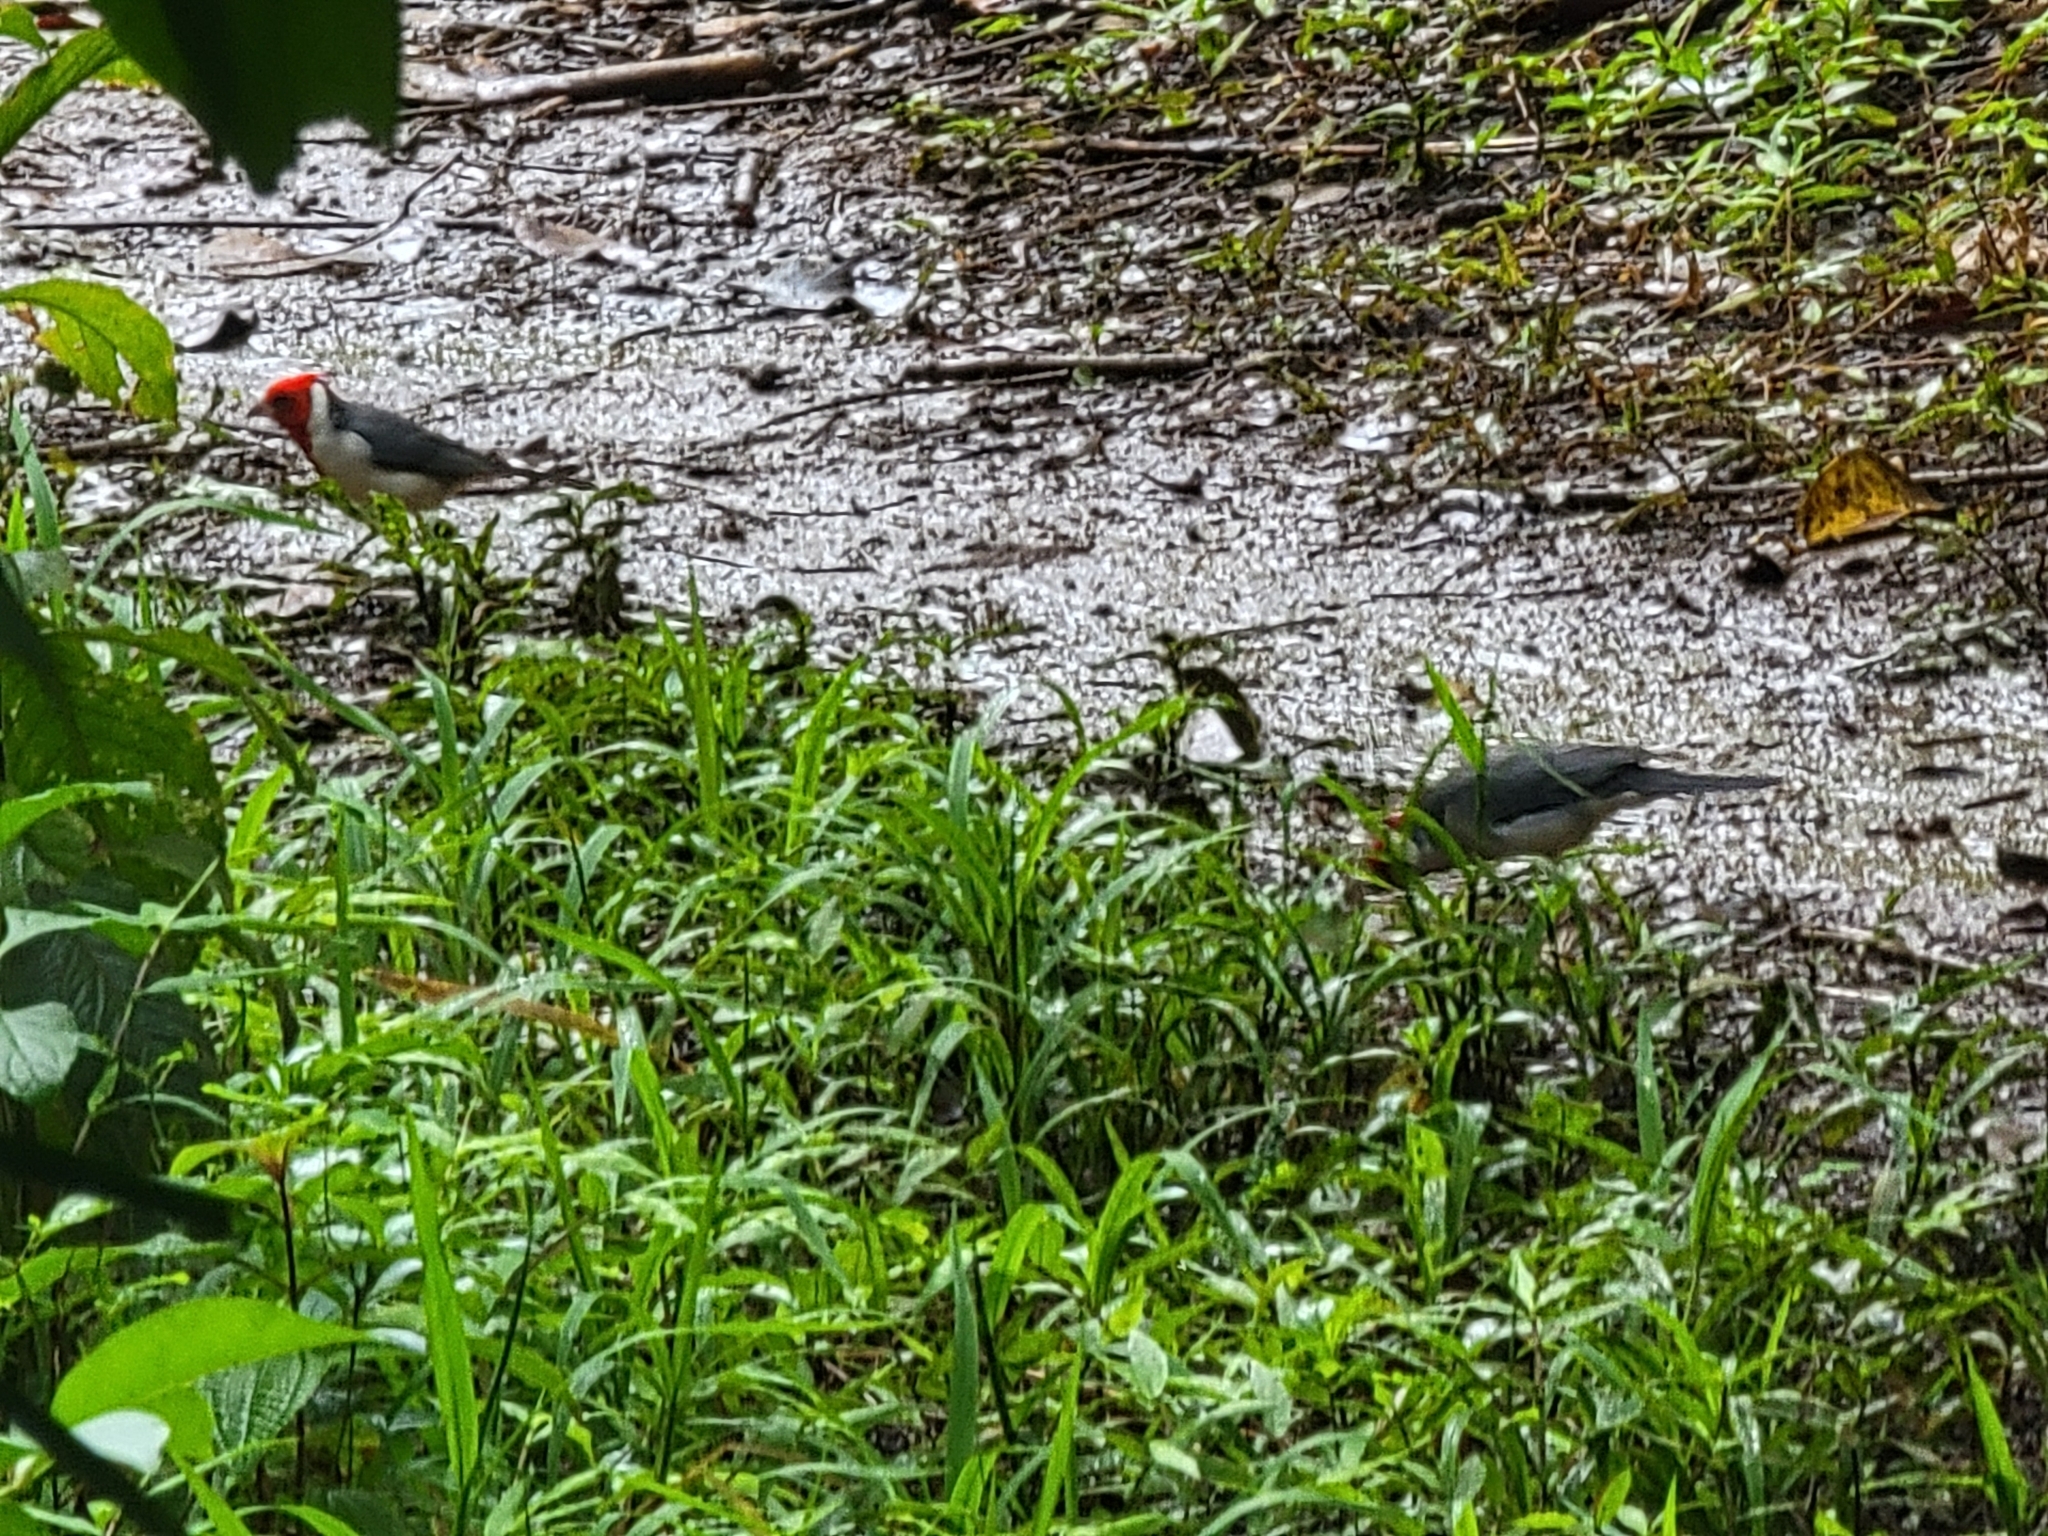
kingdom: Animalia
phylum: Chordata
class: Aves
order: Passeriformes
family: Thraupidae
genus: Paroaria
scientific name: Paroaria coronata
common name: Red-crested cardinal
